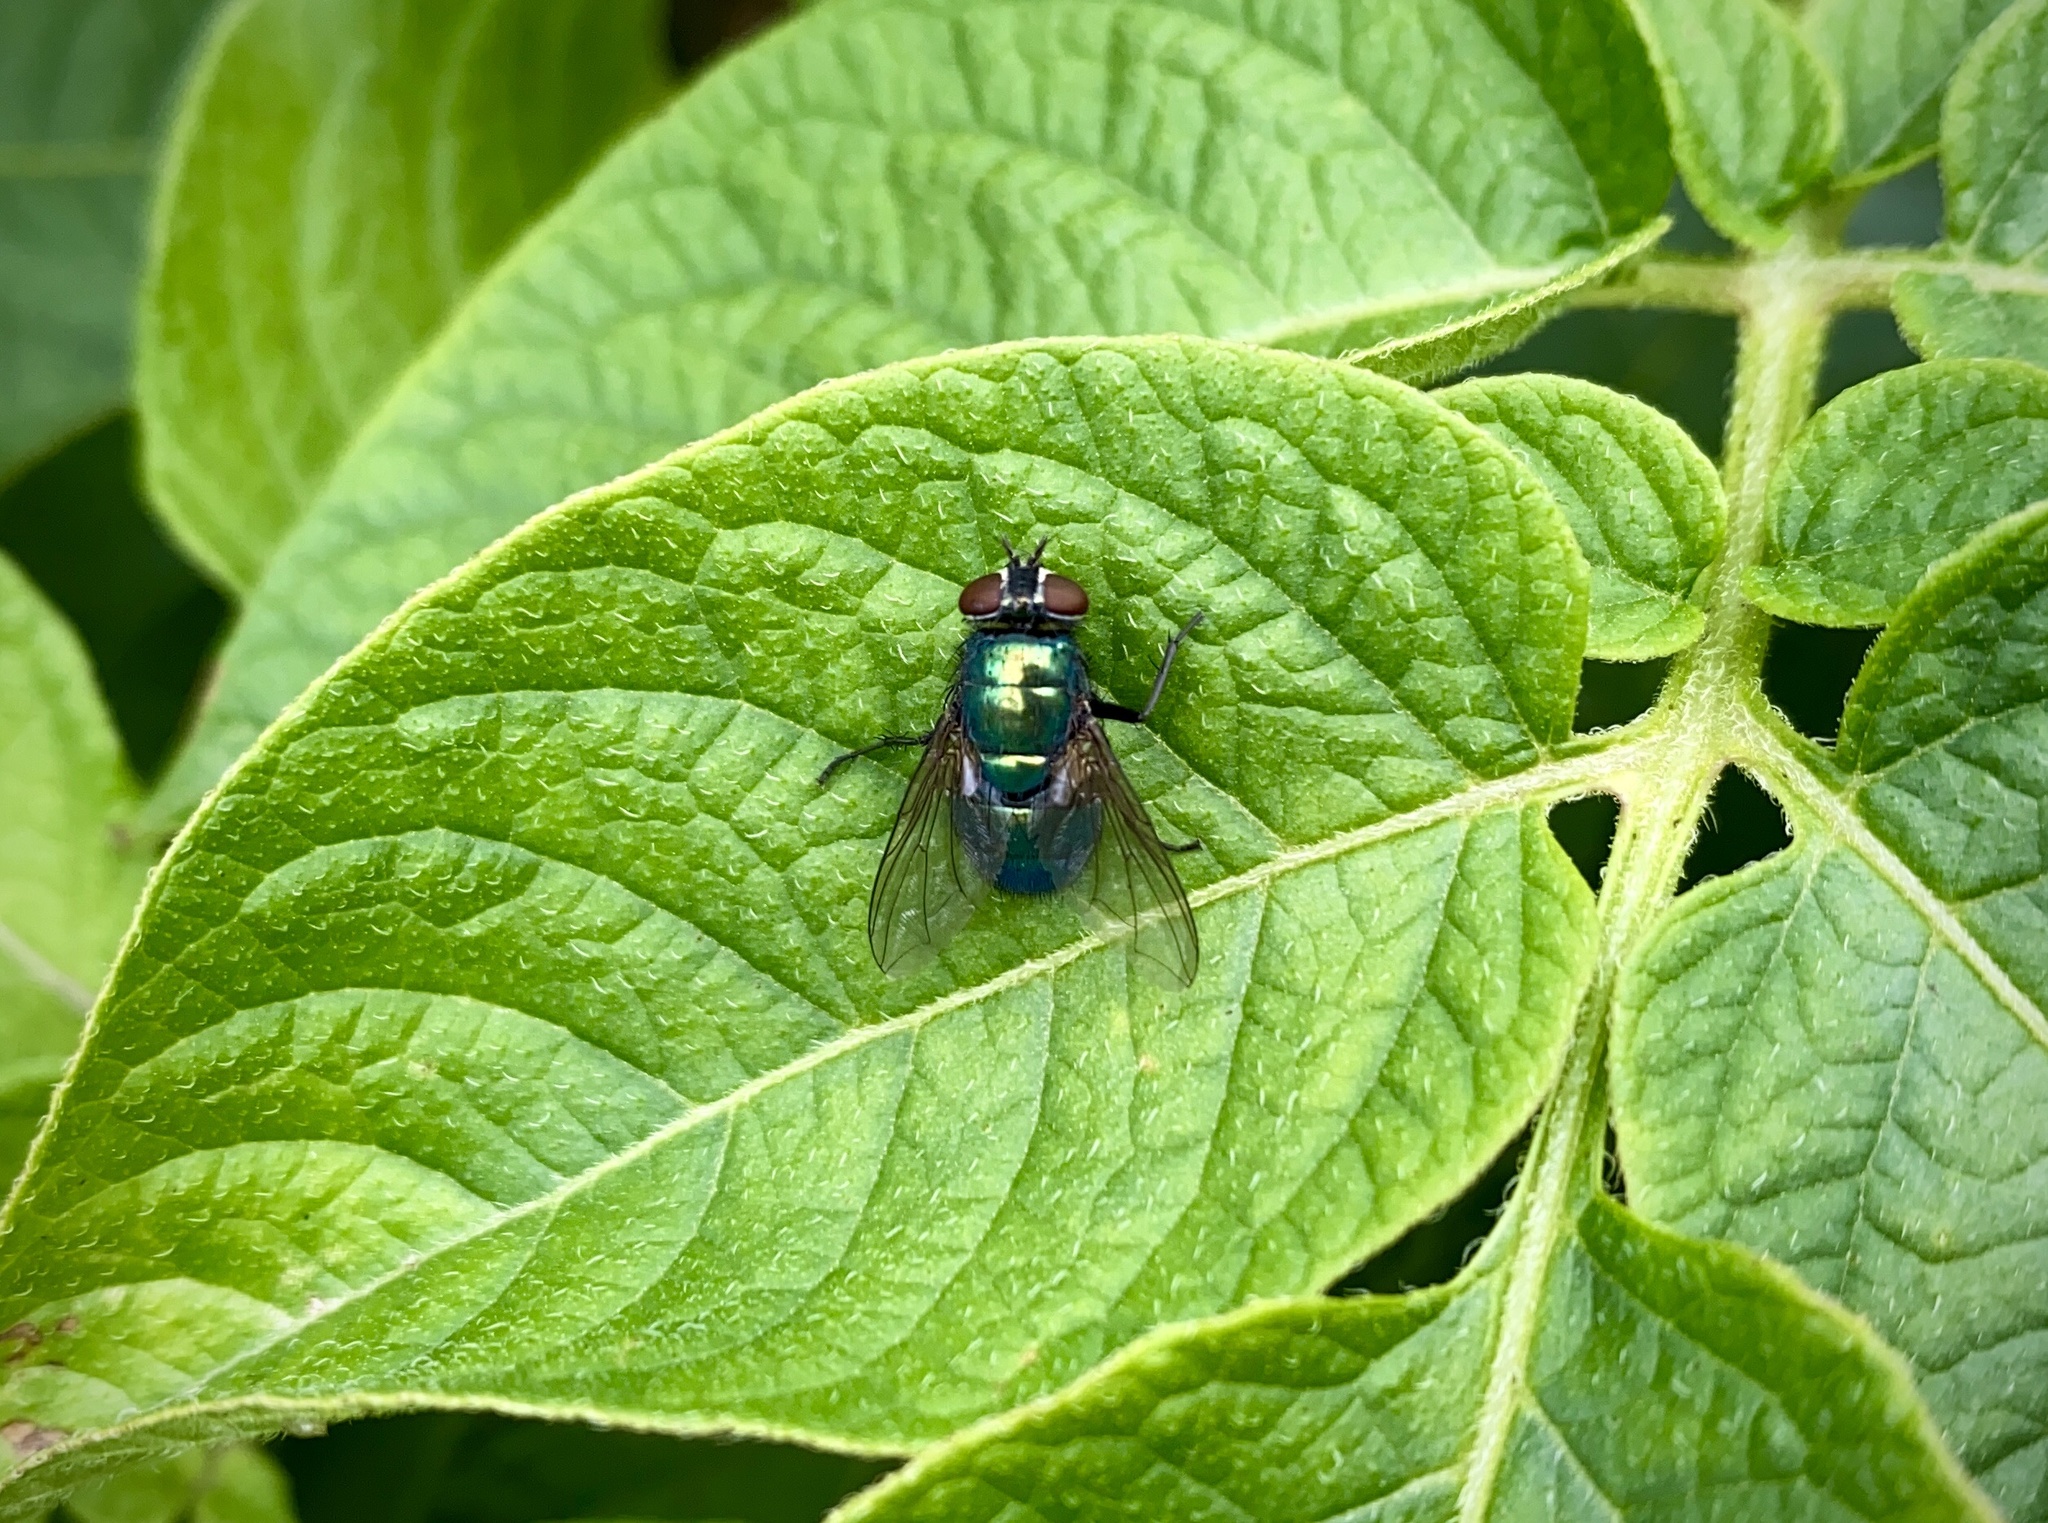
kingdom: Animalia
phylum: Arthropoda
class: Insecta
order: Diptera
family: Calliphoridae
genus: Lucilia
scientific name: Lucilia
